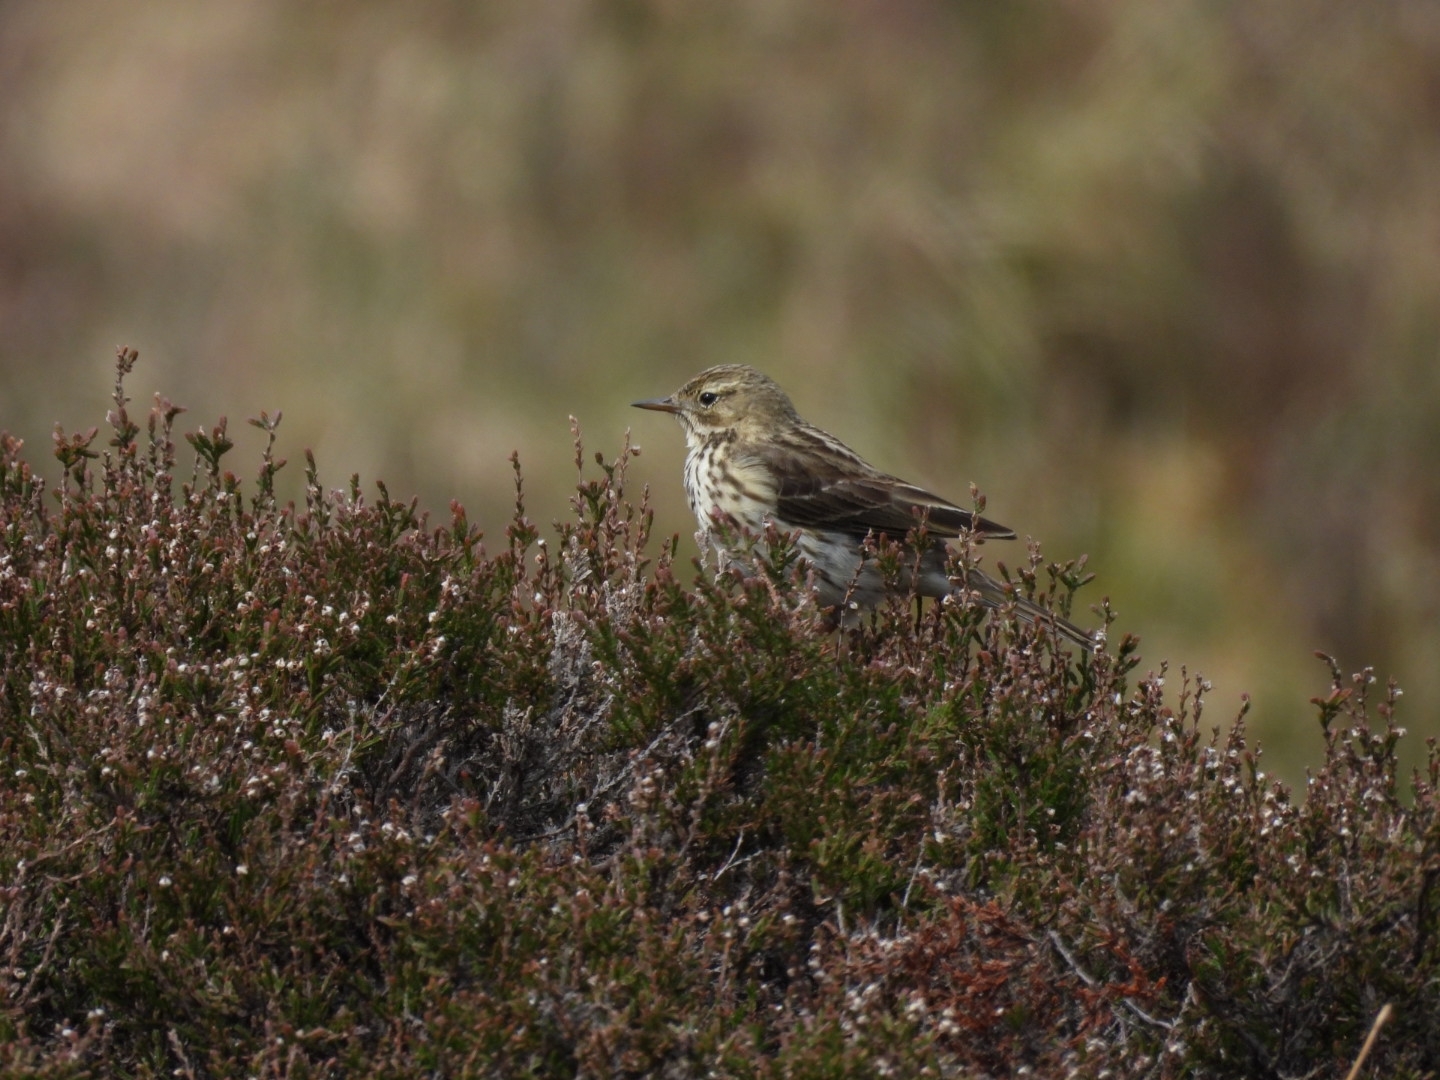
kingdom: Animalia
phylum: Chordata
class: Aves
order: Passeriformes
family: Motacillidae
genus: Anthus
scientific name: Anthus pratensis
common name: Meadow pipit
